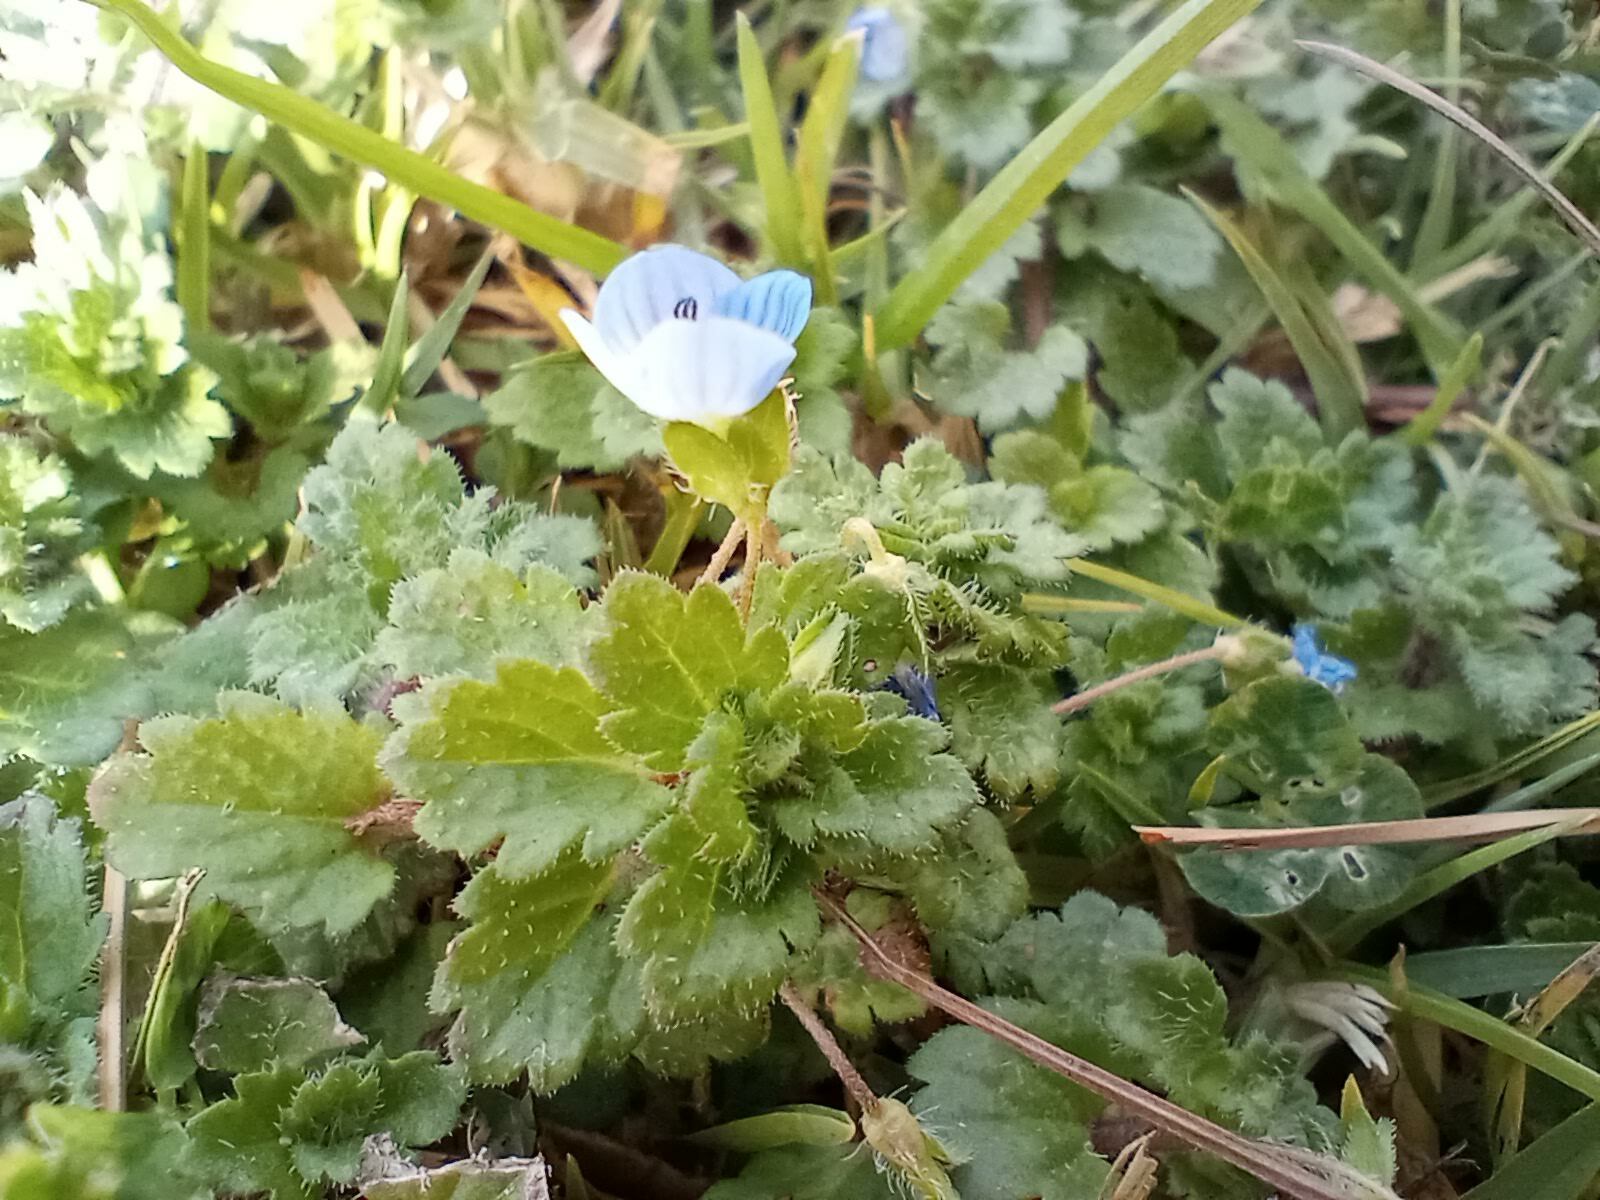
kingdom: Plantae
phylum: Tracheophyta
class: Magnoliopsida
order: Lamiales
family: Plantaginaceae
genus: Veronica
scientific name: Veronica persica
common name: Common field-speedwell
